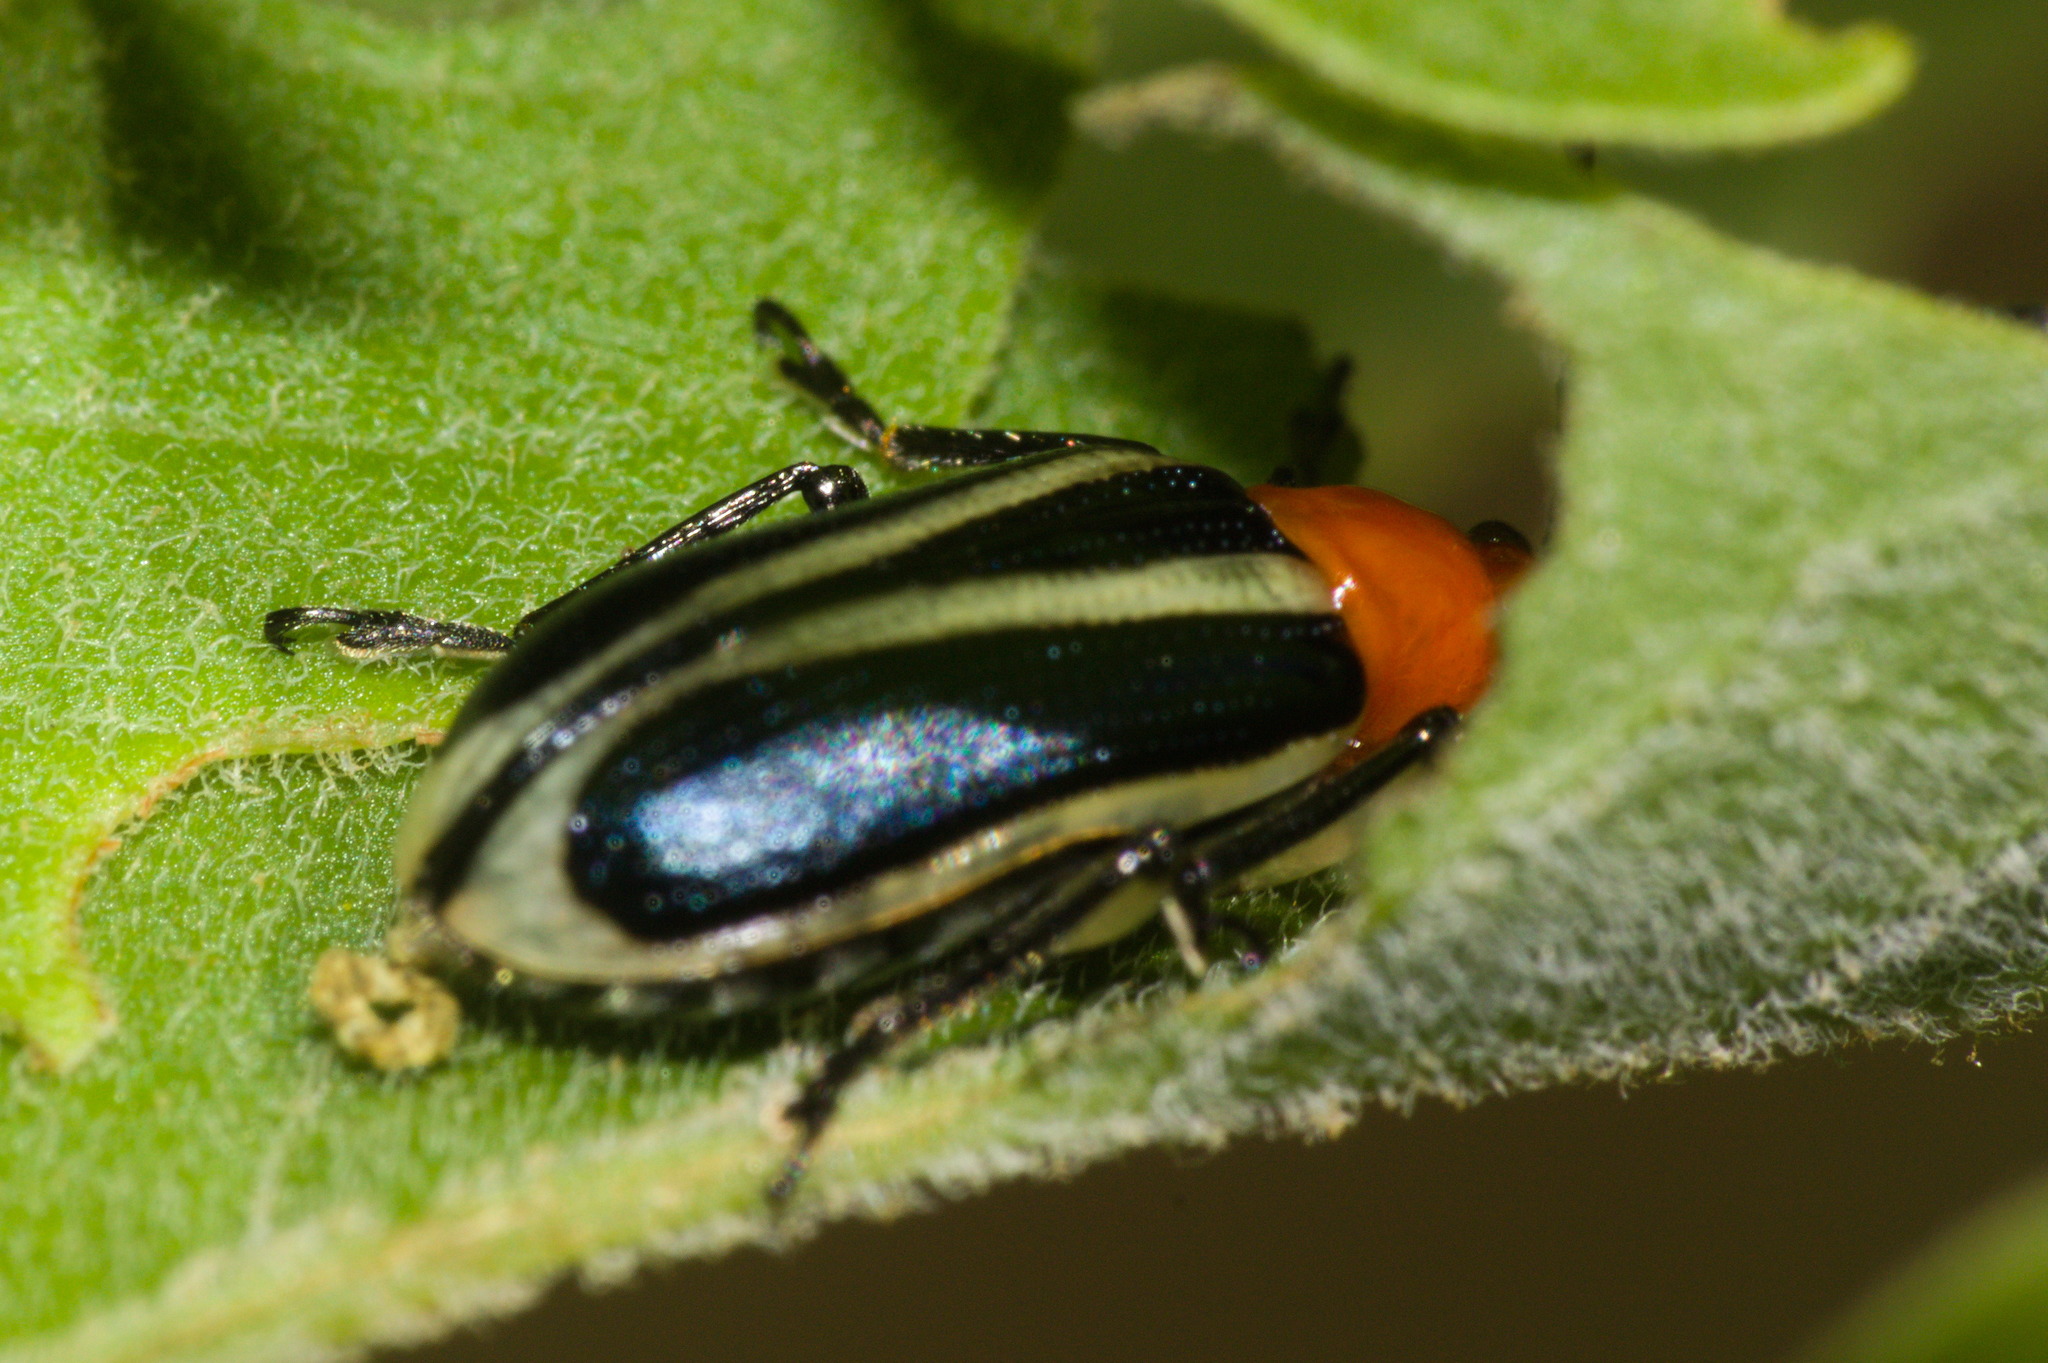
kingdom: Animalia
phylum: Arthropoda
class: Insecta
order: Coleoptera
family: Chrysomelidae
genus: Stolas
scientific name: Stolas chalybaea
